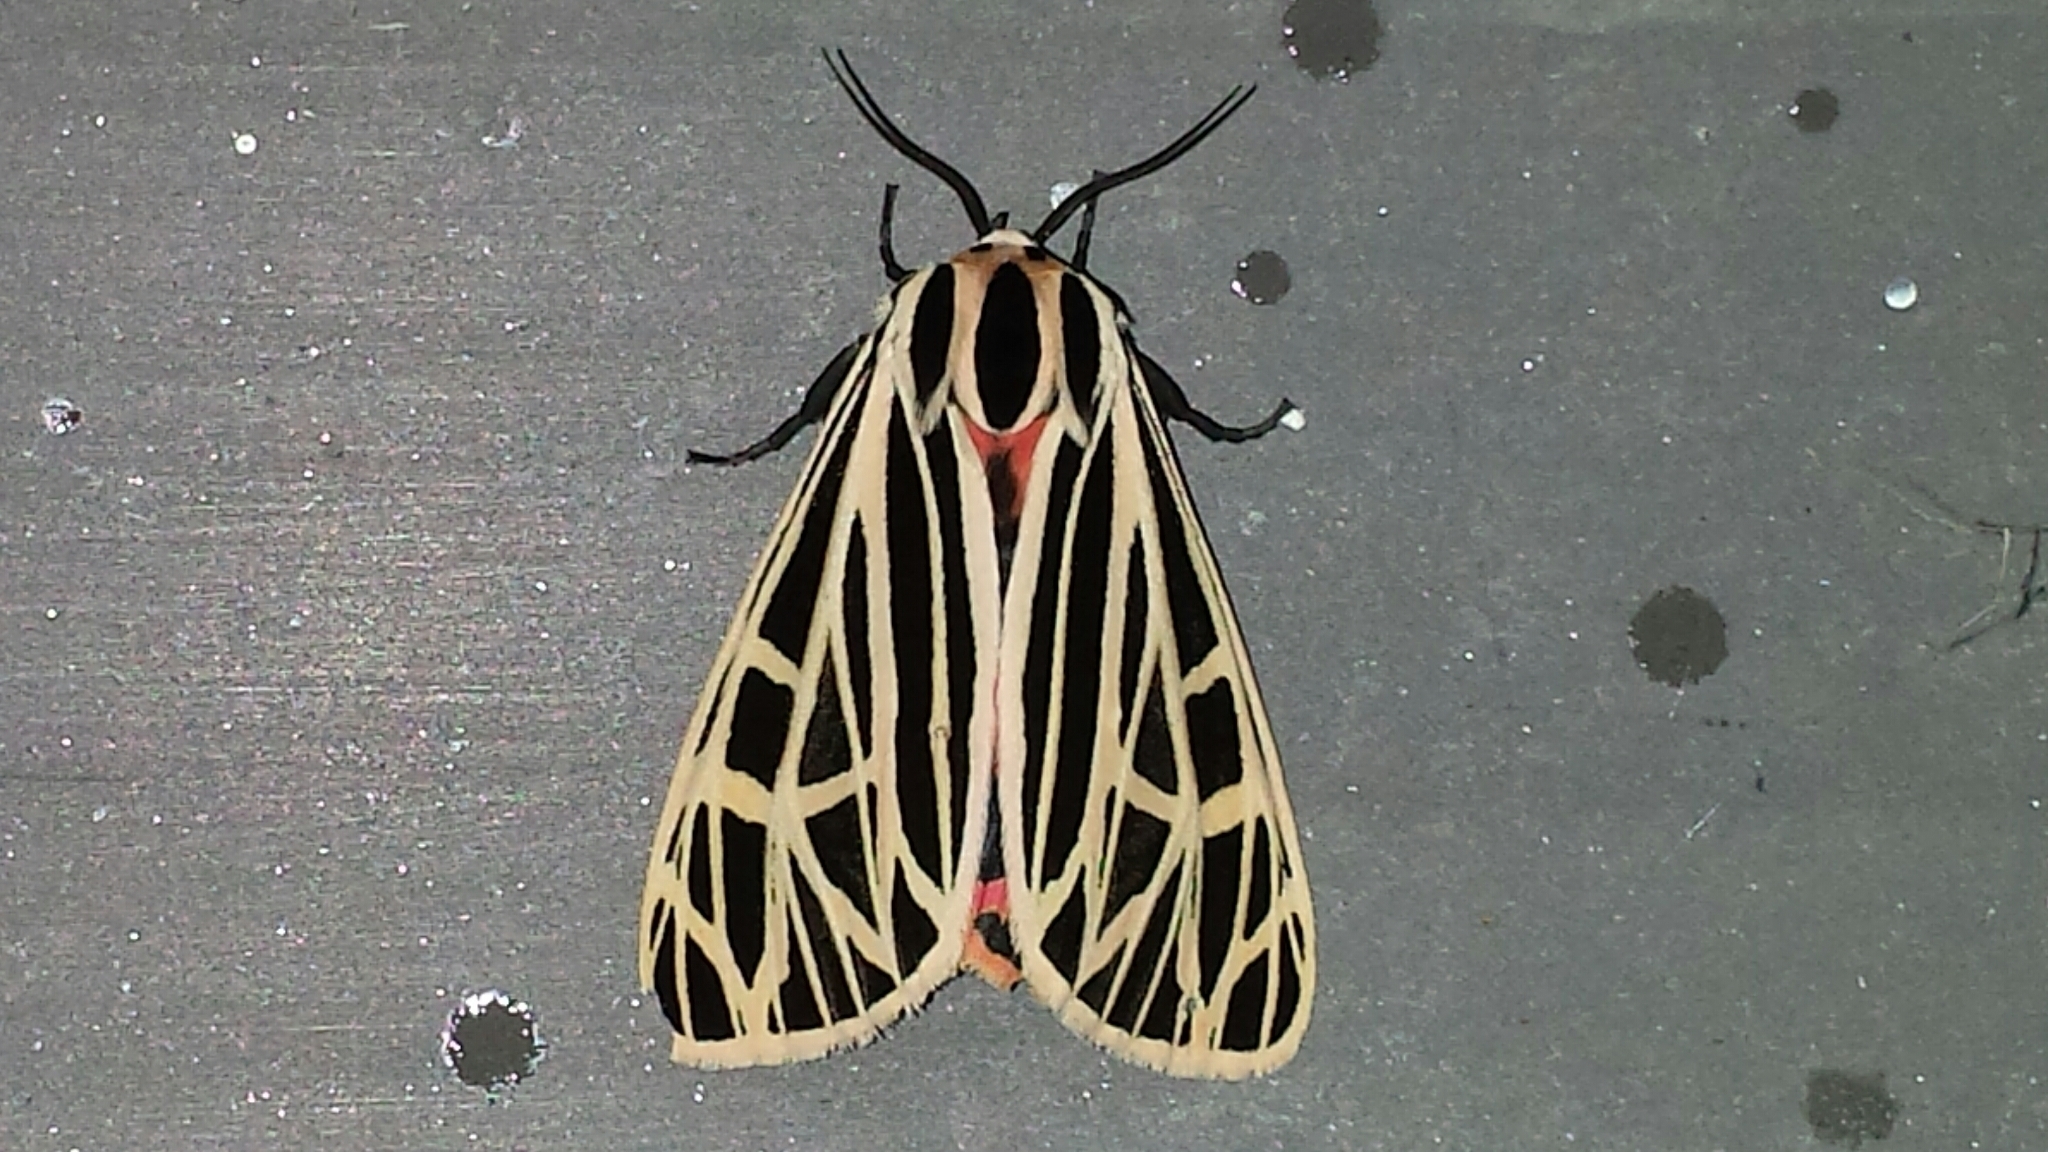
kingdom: Animalia
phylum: Arthropoda
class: Insecta
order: Lepidoptera
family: Erebidae
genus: Grammia
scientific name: Grammia virgo
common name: Virgin tiger moth
